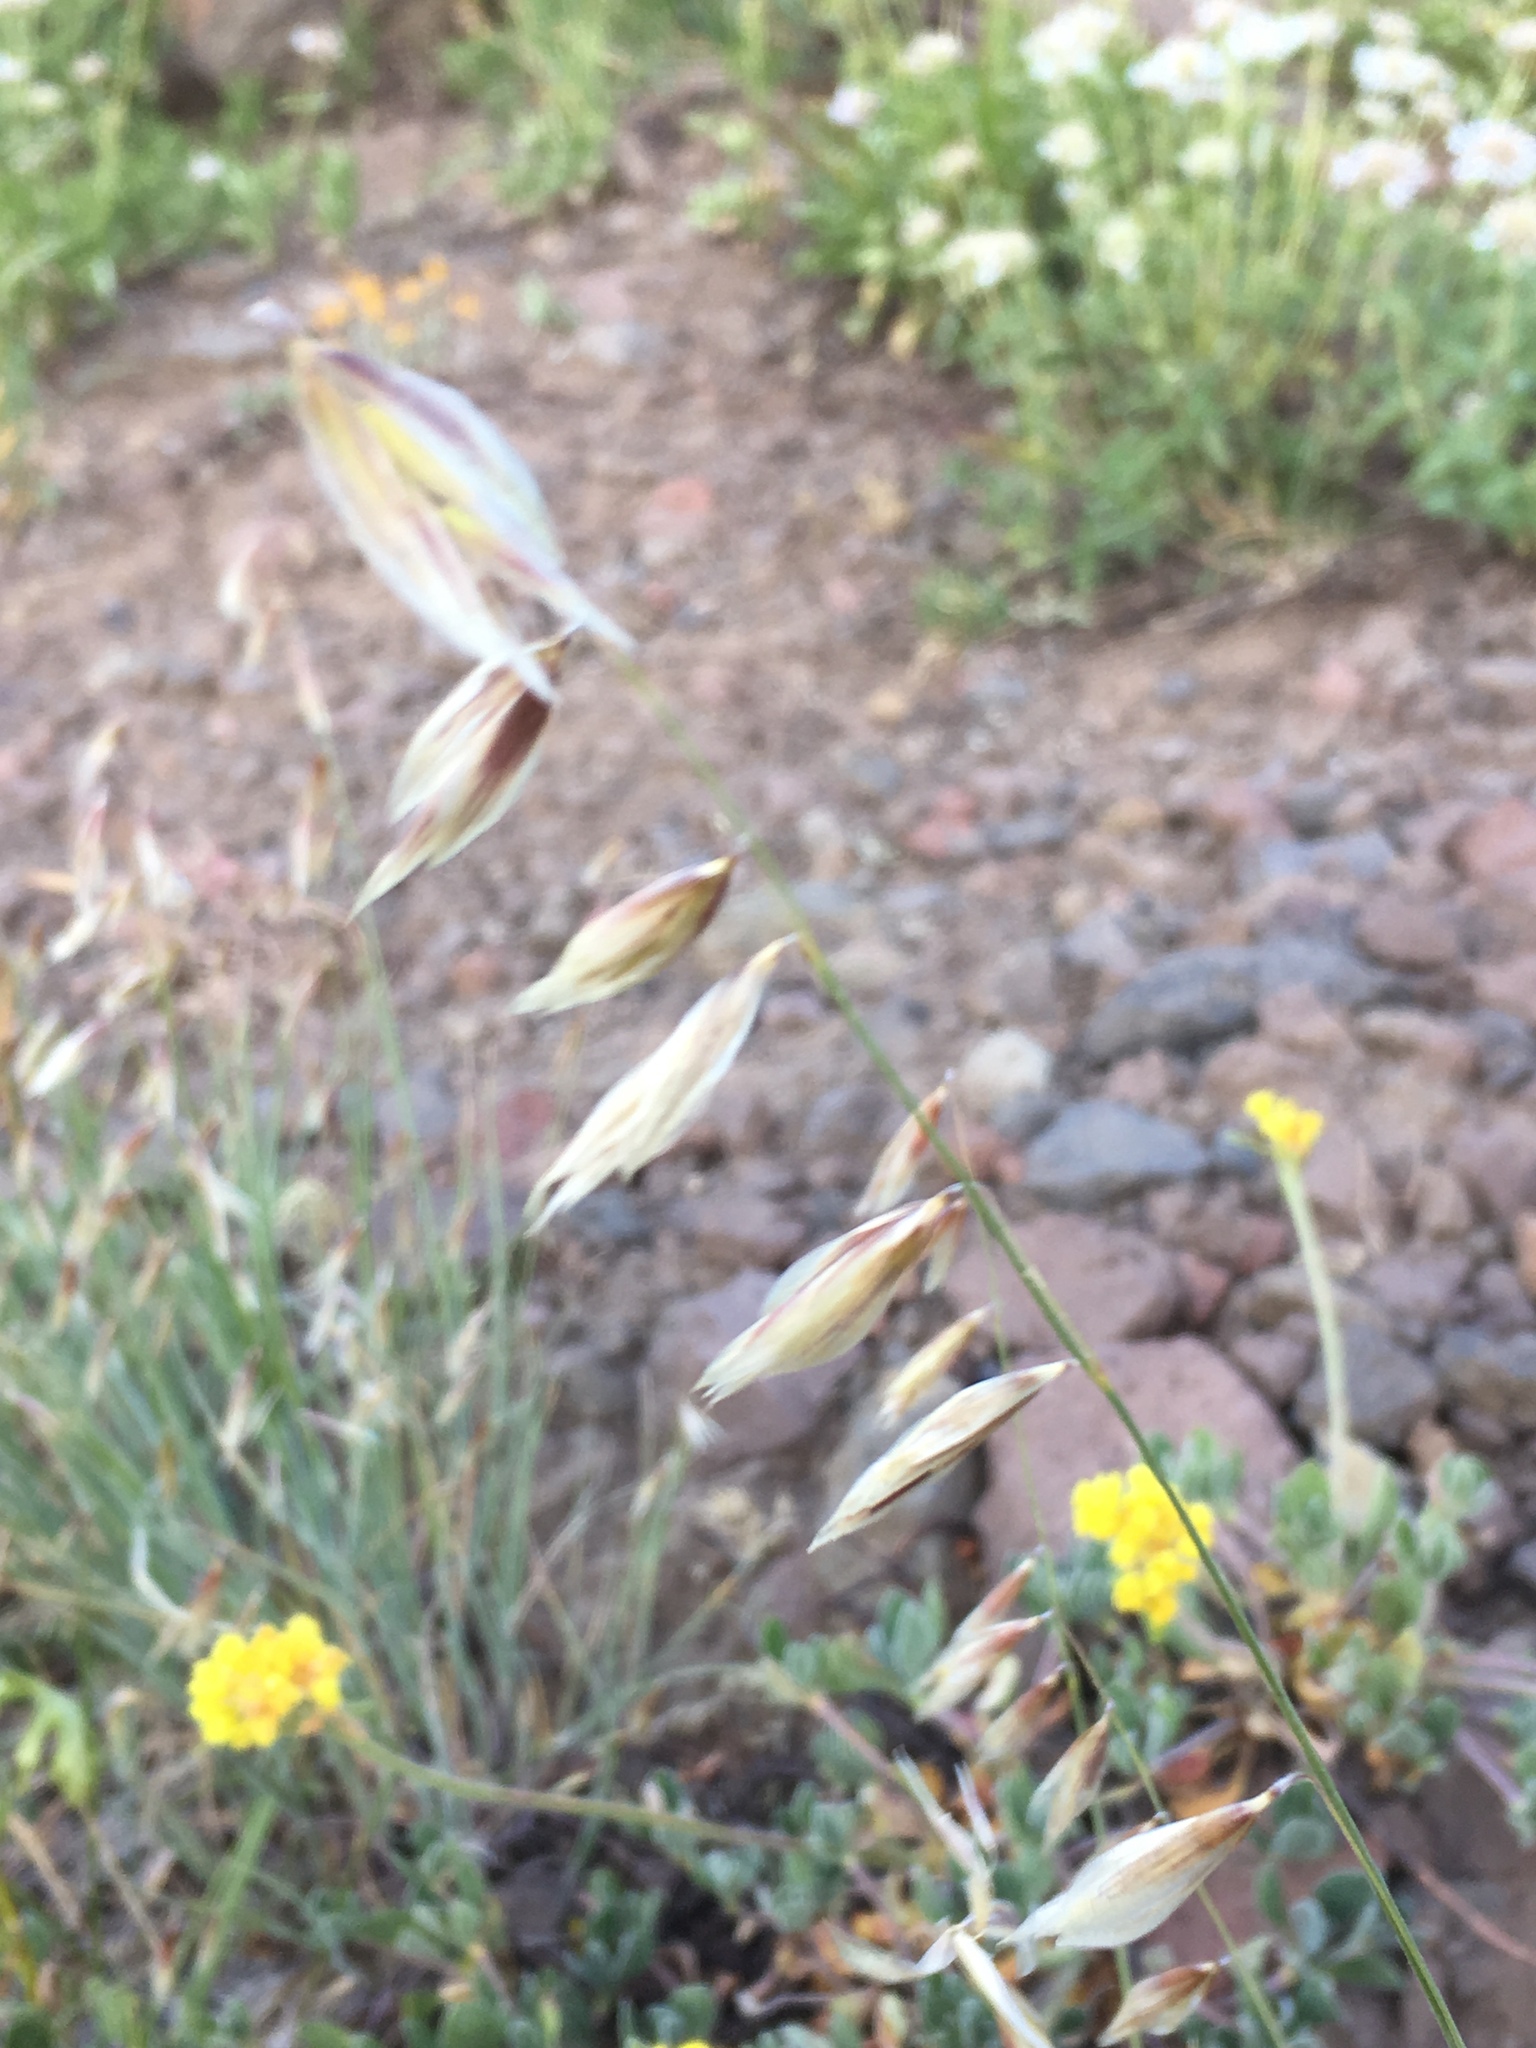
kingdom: Plantae
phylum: Tracheophyta
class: Liliopsida
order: Poales
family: Poaceae
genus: Melica
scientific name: Melica stricta
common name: Rock melic
